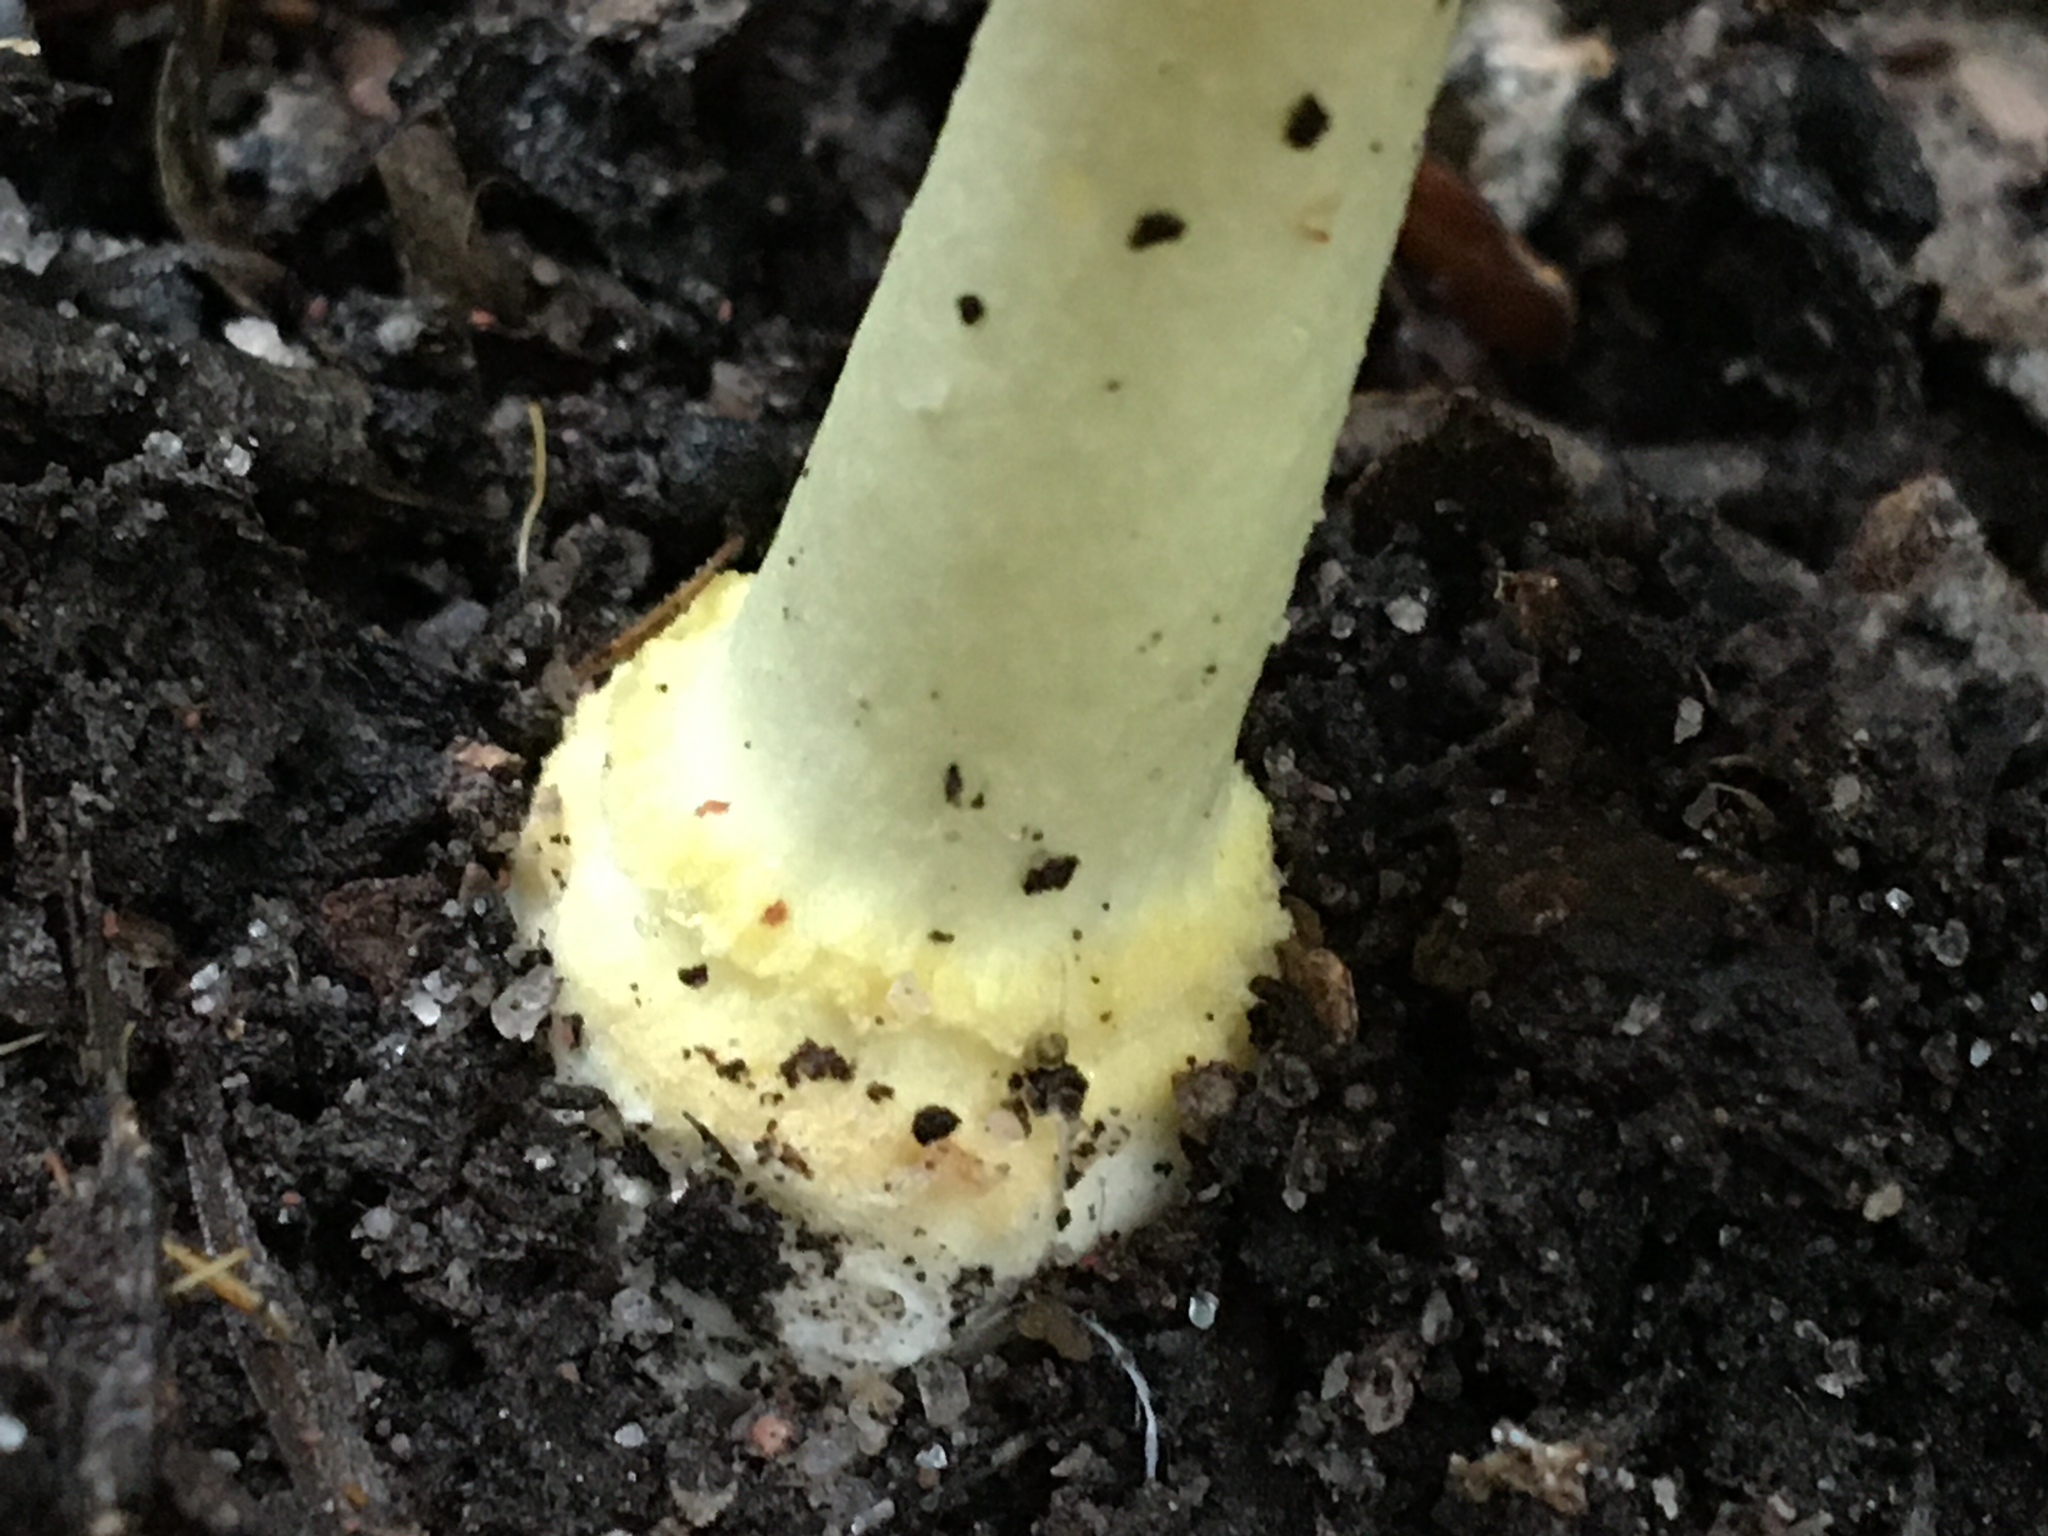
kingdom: Fungi
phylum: Basidiomycota
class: Agaricomycetes
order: Agaricales
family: Amanitaceae
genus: Amanita
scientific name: Amanita xanthocephala
